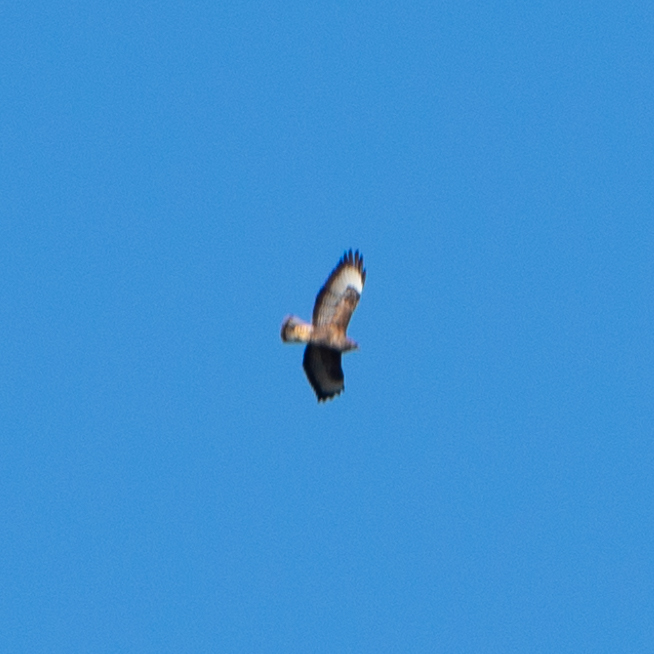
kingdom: Animalia
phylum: Chordata
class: Aves
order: Accipitriformes
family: Accipitridae
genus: Buteo
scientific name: Buteo buteo
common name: Common buzzard
